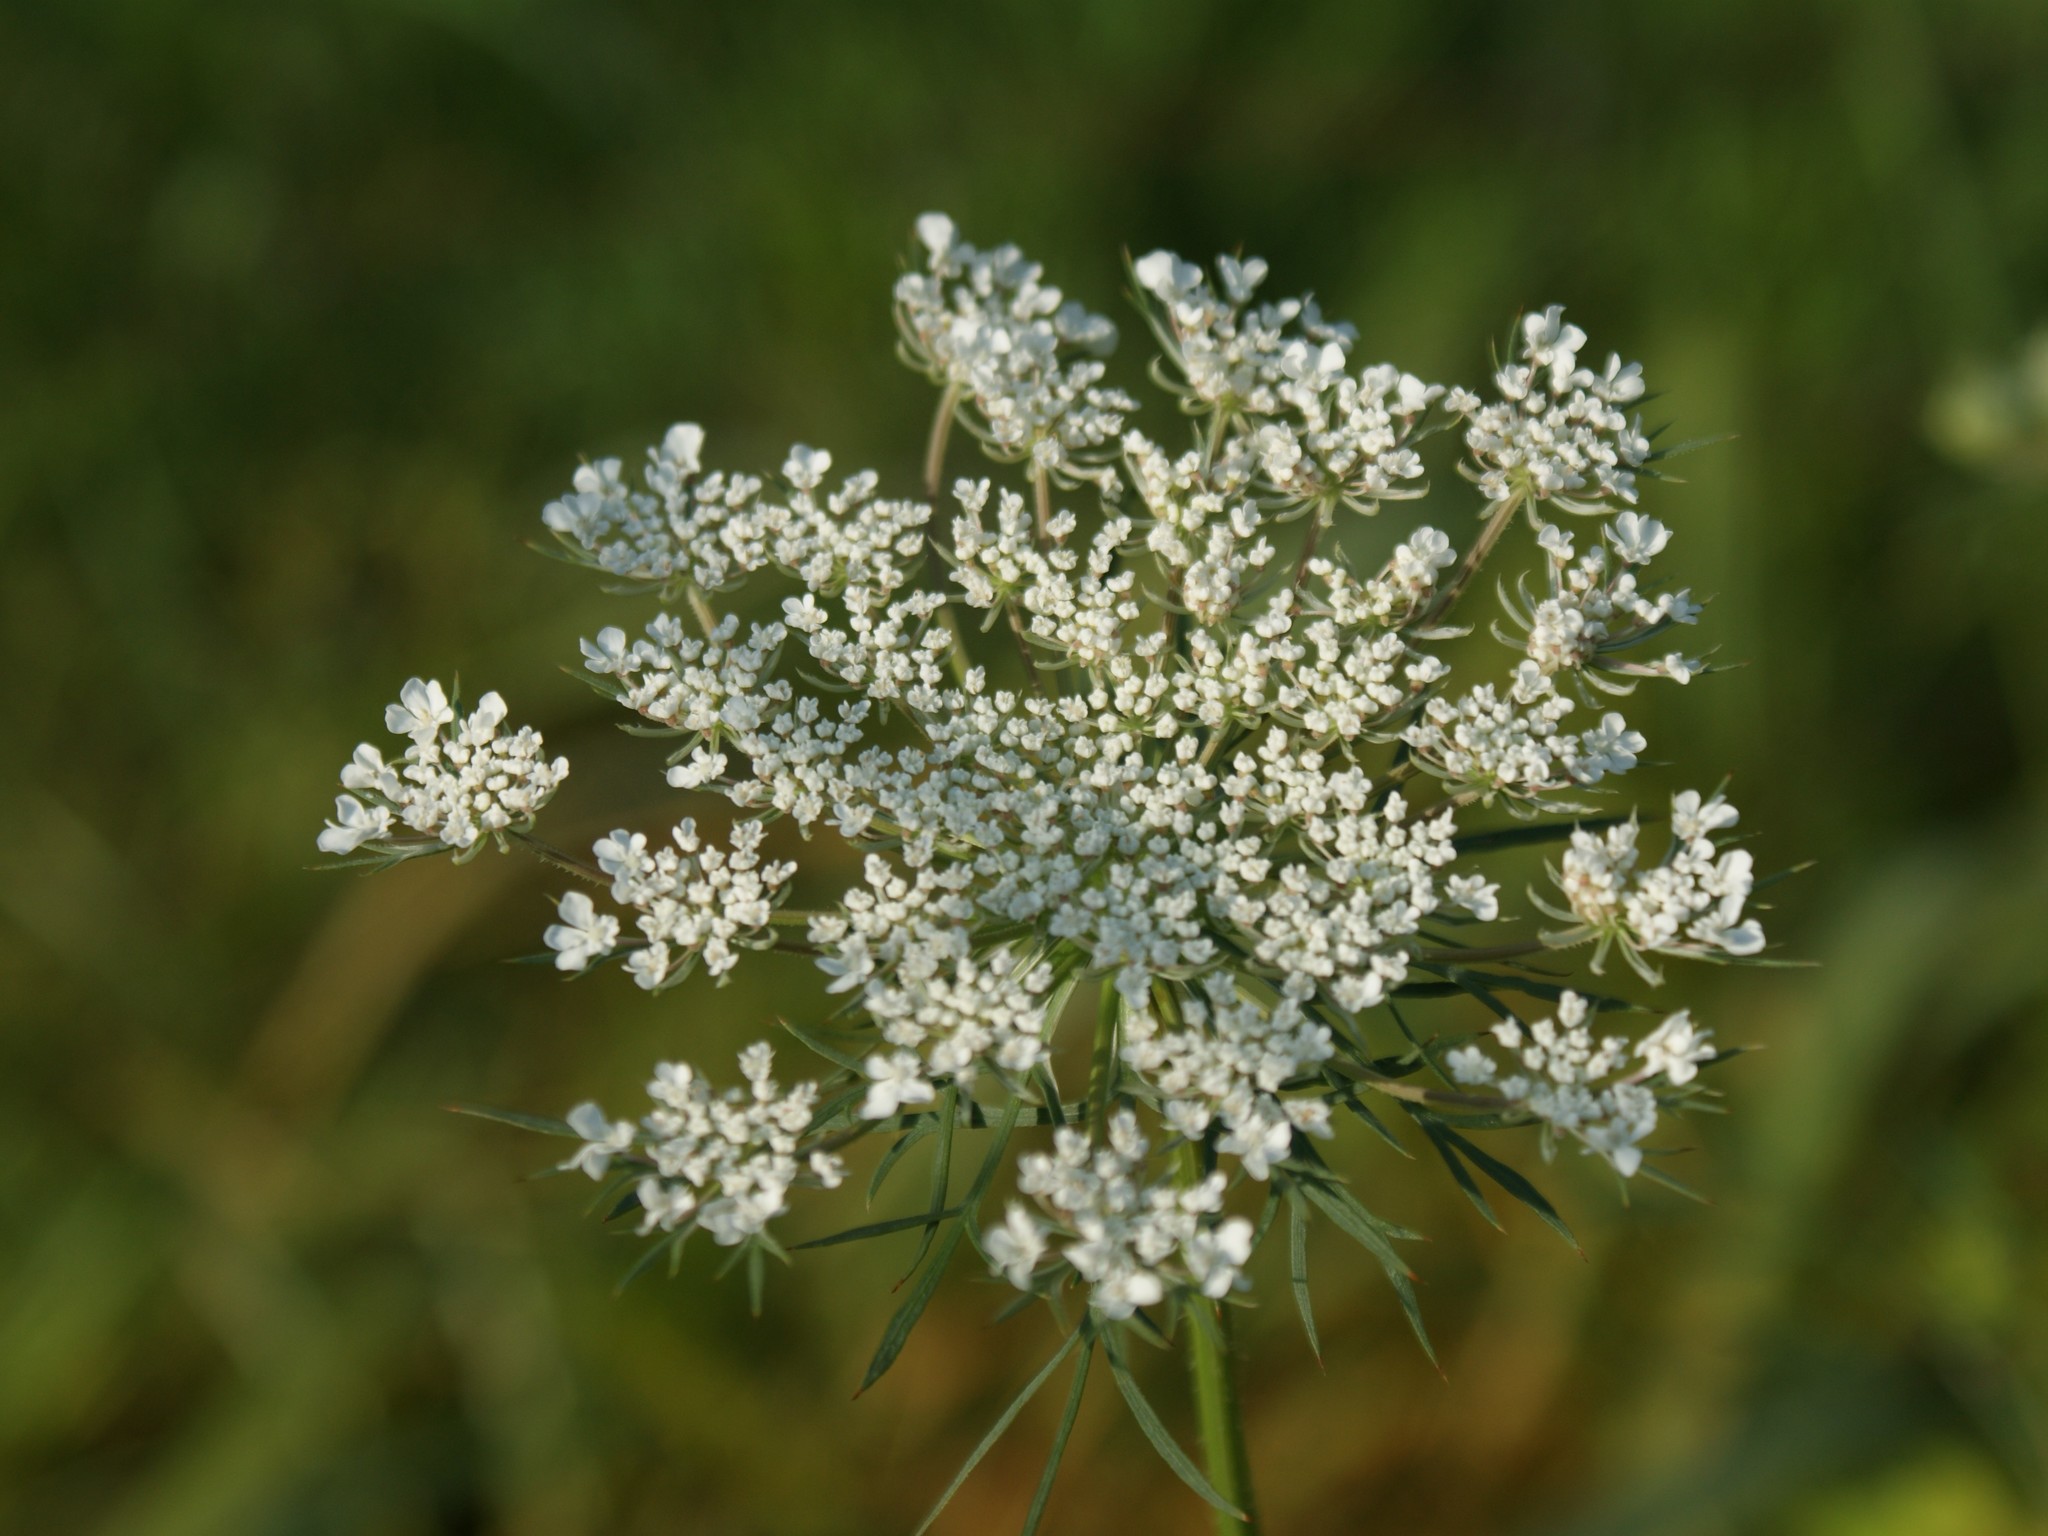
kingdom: Plantae
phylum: Tracheophyta
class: Magnoliopsida
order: Apiales
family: Apiaceae
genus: Daucus
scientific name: Daucus carota
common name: Wild carrot
